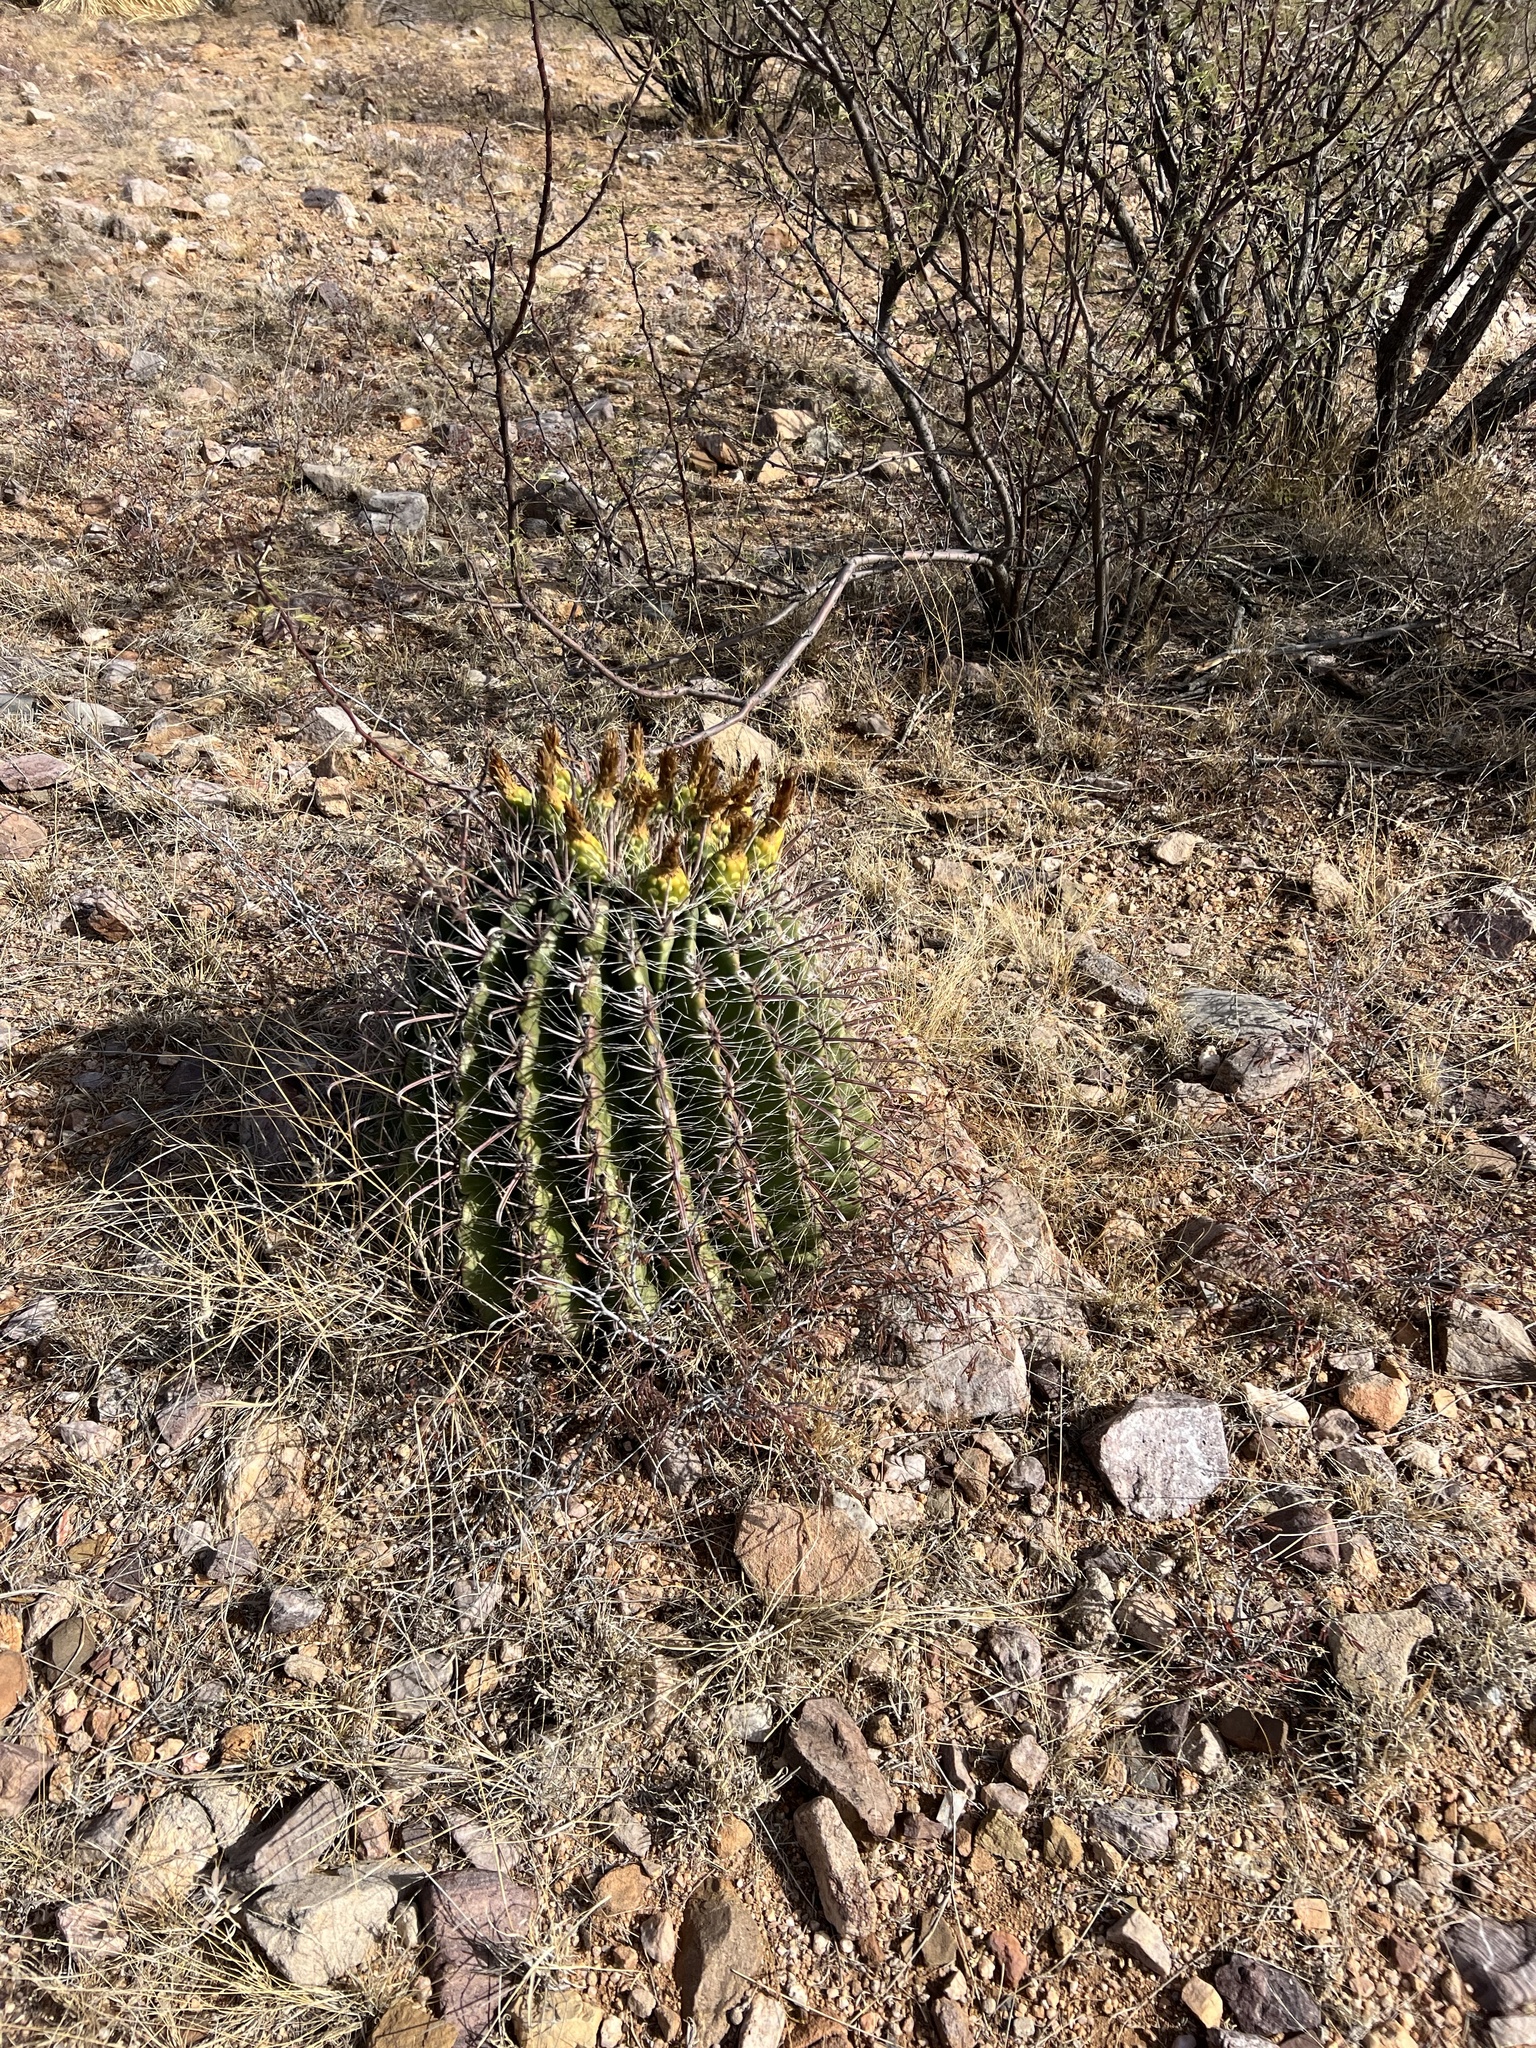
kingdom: Plantae
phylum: Tracheophyta
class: Magnoliopsida
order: Caryophyllales
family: Cactaceae
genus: Ferocactus
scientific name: Ferocactus wislizeni
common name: Candy barrel cactus
